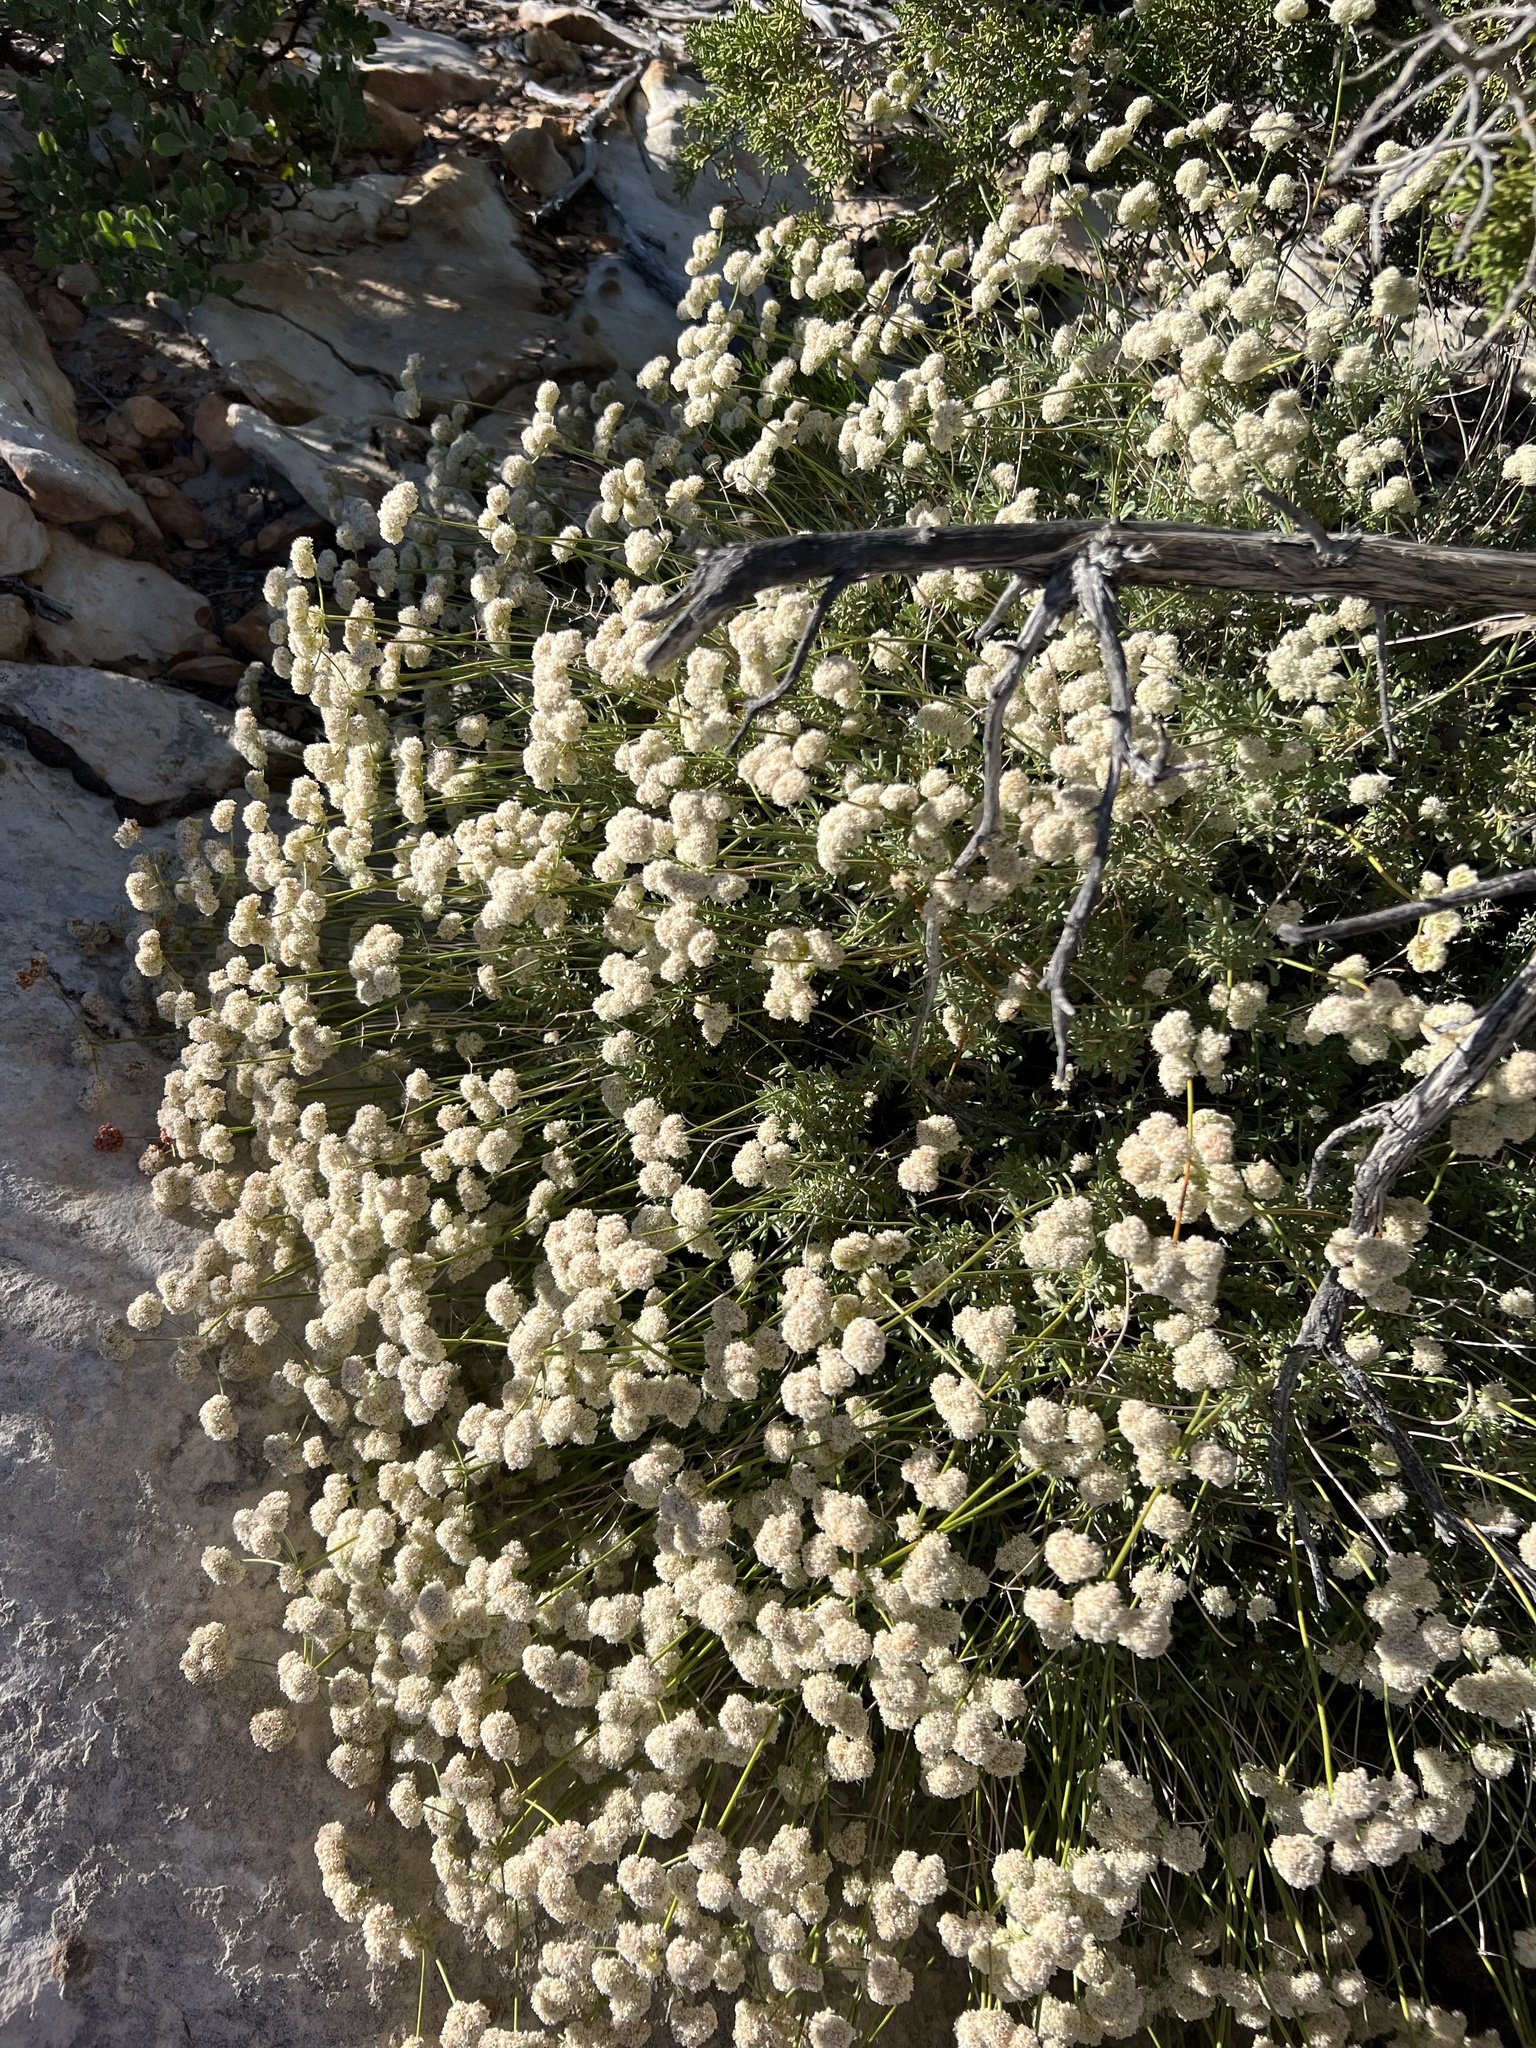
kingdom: Plantae
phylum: Tracheophyta
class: Magnoliopsida
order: Caryophyllales
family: Polygonaceae
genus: Eriogonum
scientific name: Eriogonum fasciculatum
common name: California wild buckwheat
